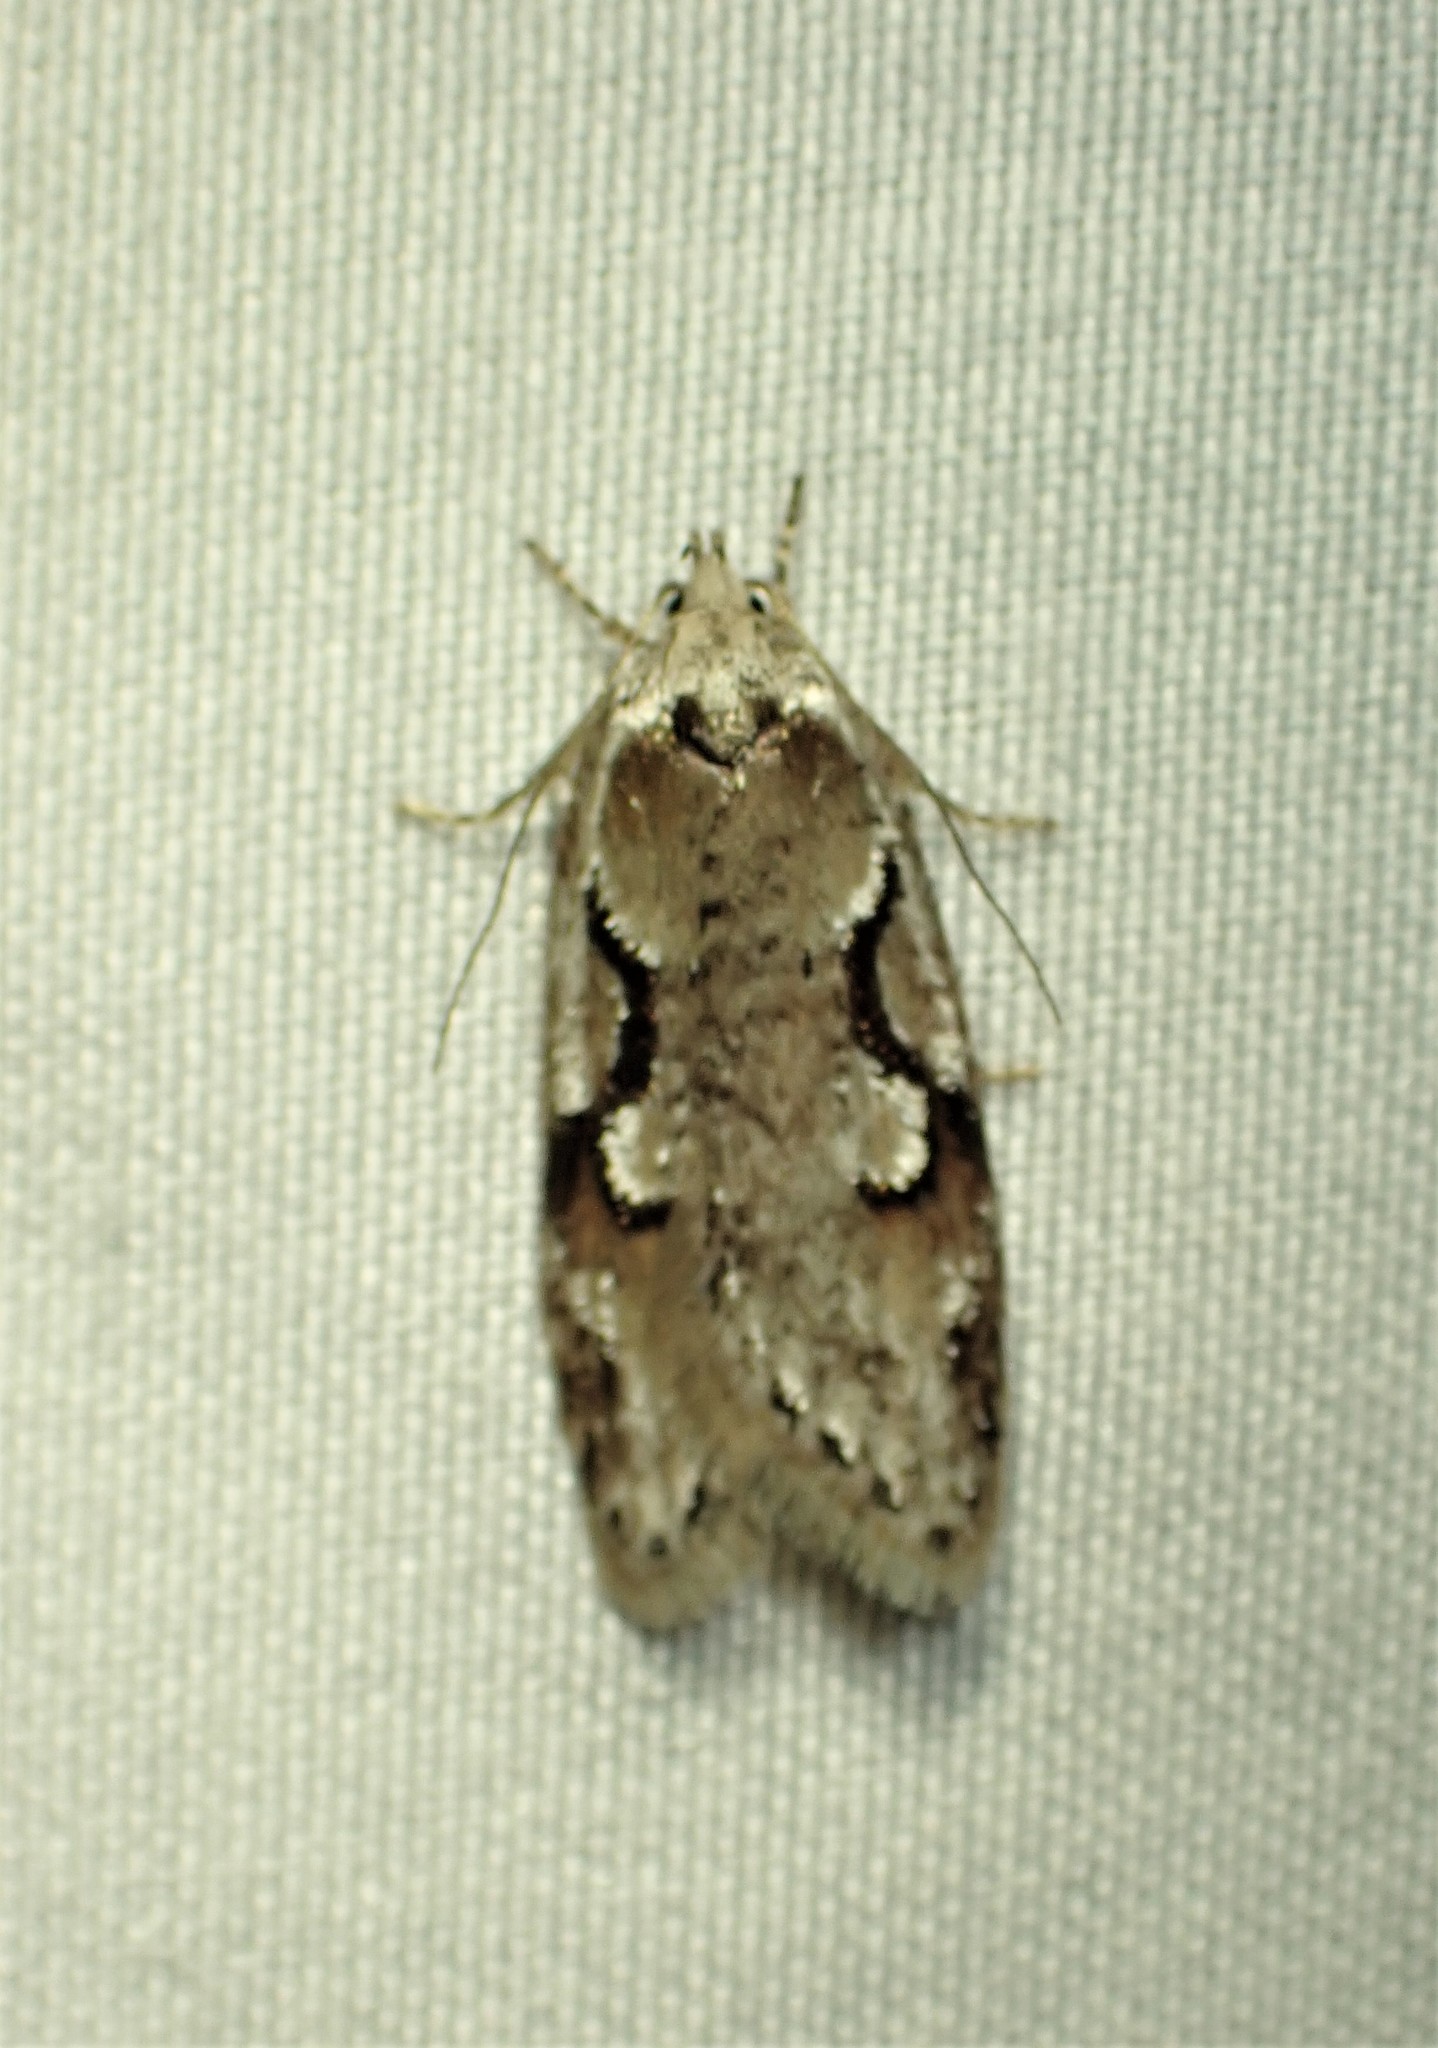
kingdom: Animalia
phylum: Arthropoda
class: Insecta
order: Lepidoptera
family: Depressariidae
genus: Semioscopis
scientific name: Semioscopis merriccella
